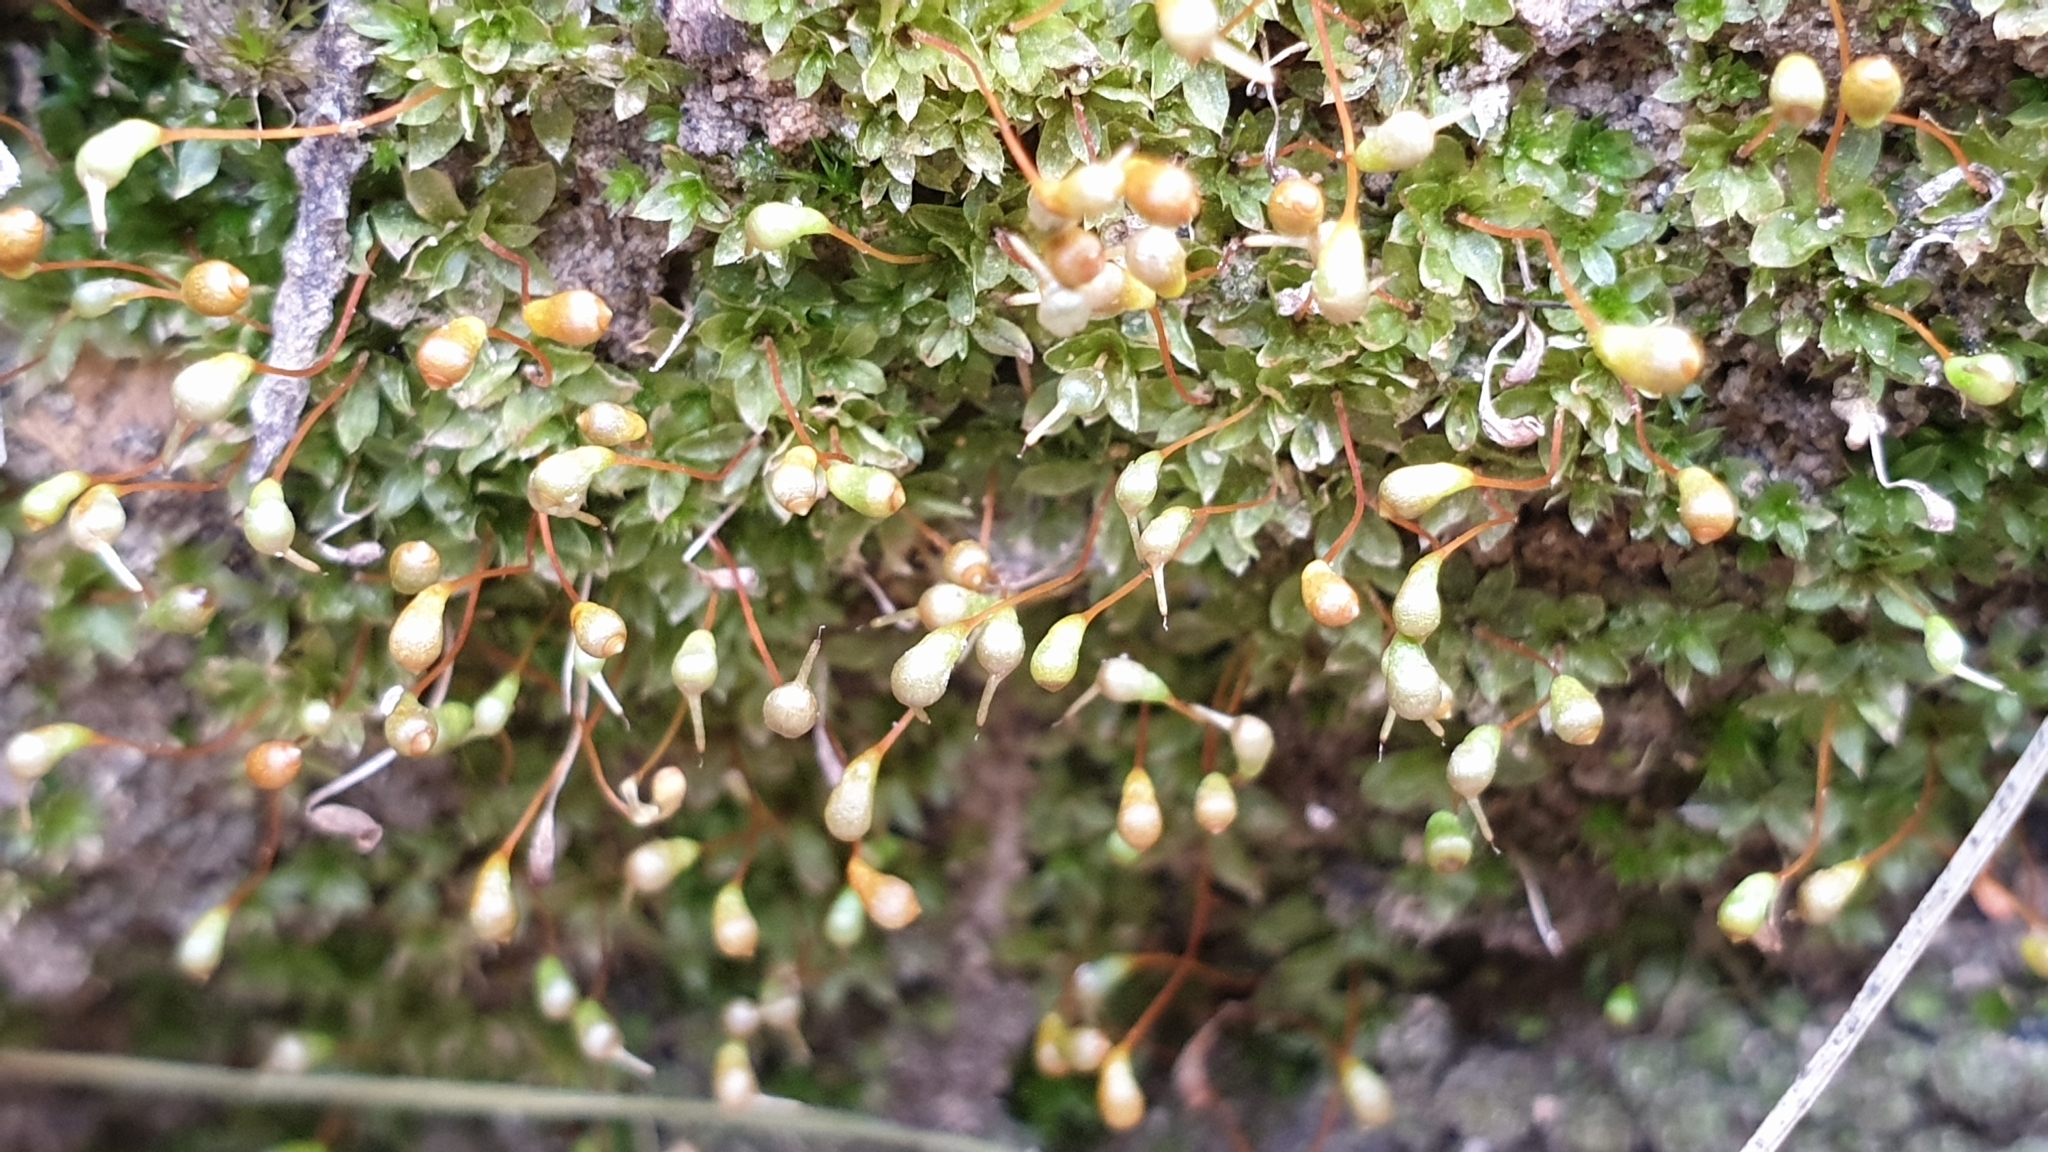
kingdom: Plantae
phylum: Bryophyta
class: Bryopsida
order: Funariales
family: Funariaceae
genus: Entosthodon
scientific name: Entosthodon subnudus
